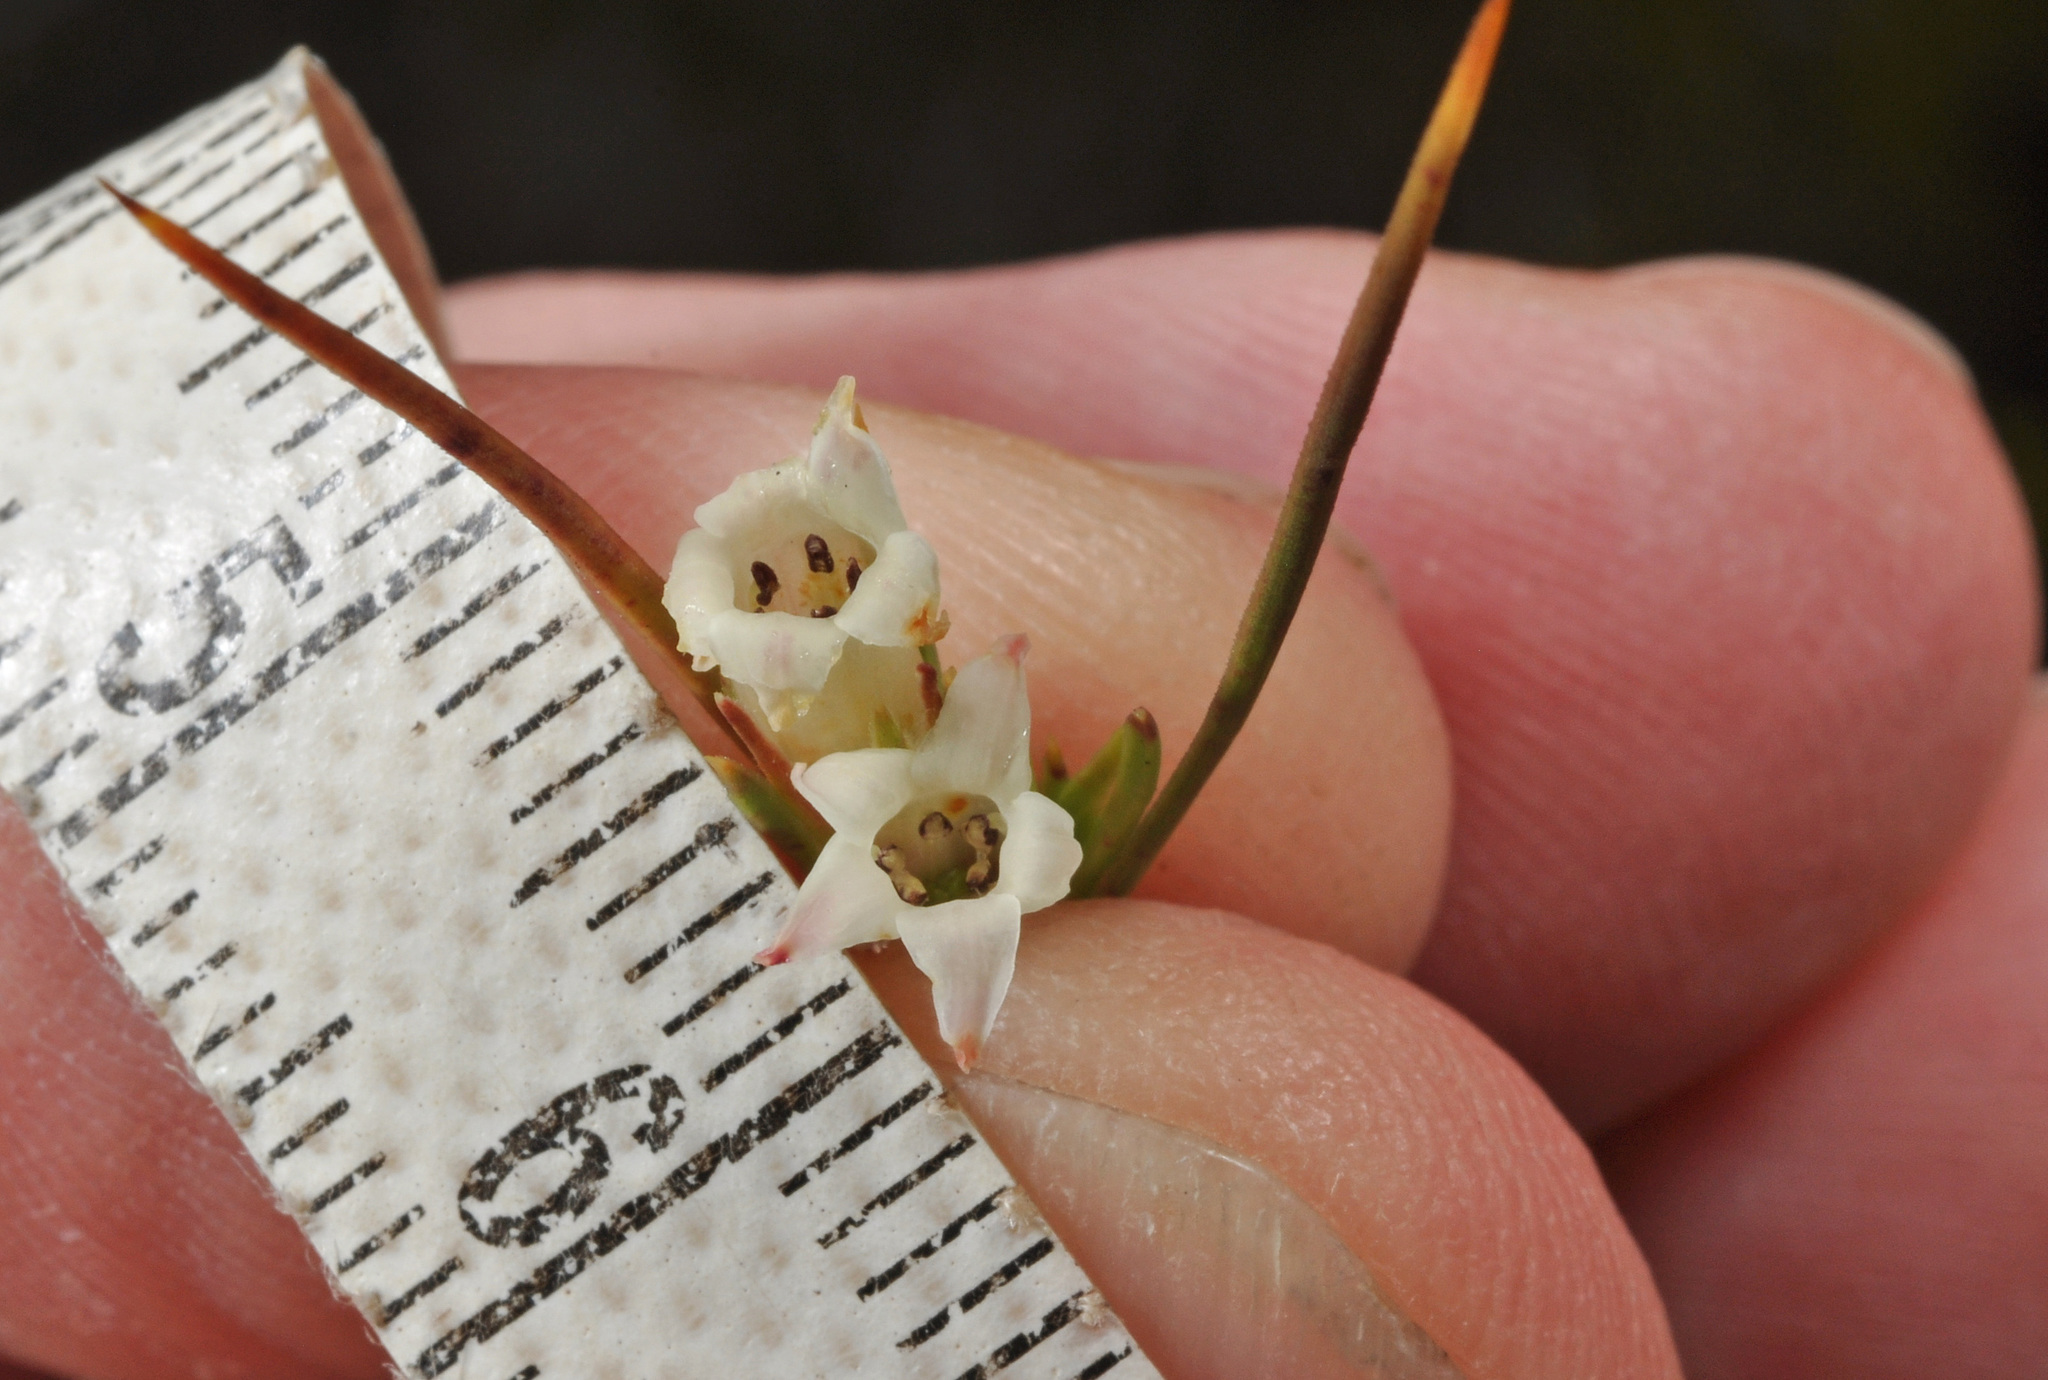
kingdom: Plantae
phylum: Tracheophyta
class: Magnoliopsida
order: Ericales
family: Ericaceae
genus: Dracophyllum
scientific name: Dracophyllum rosmarinifolium
